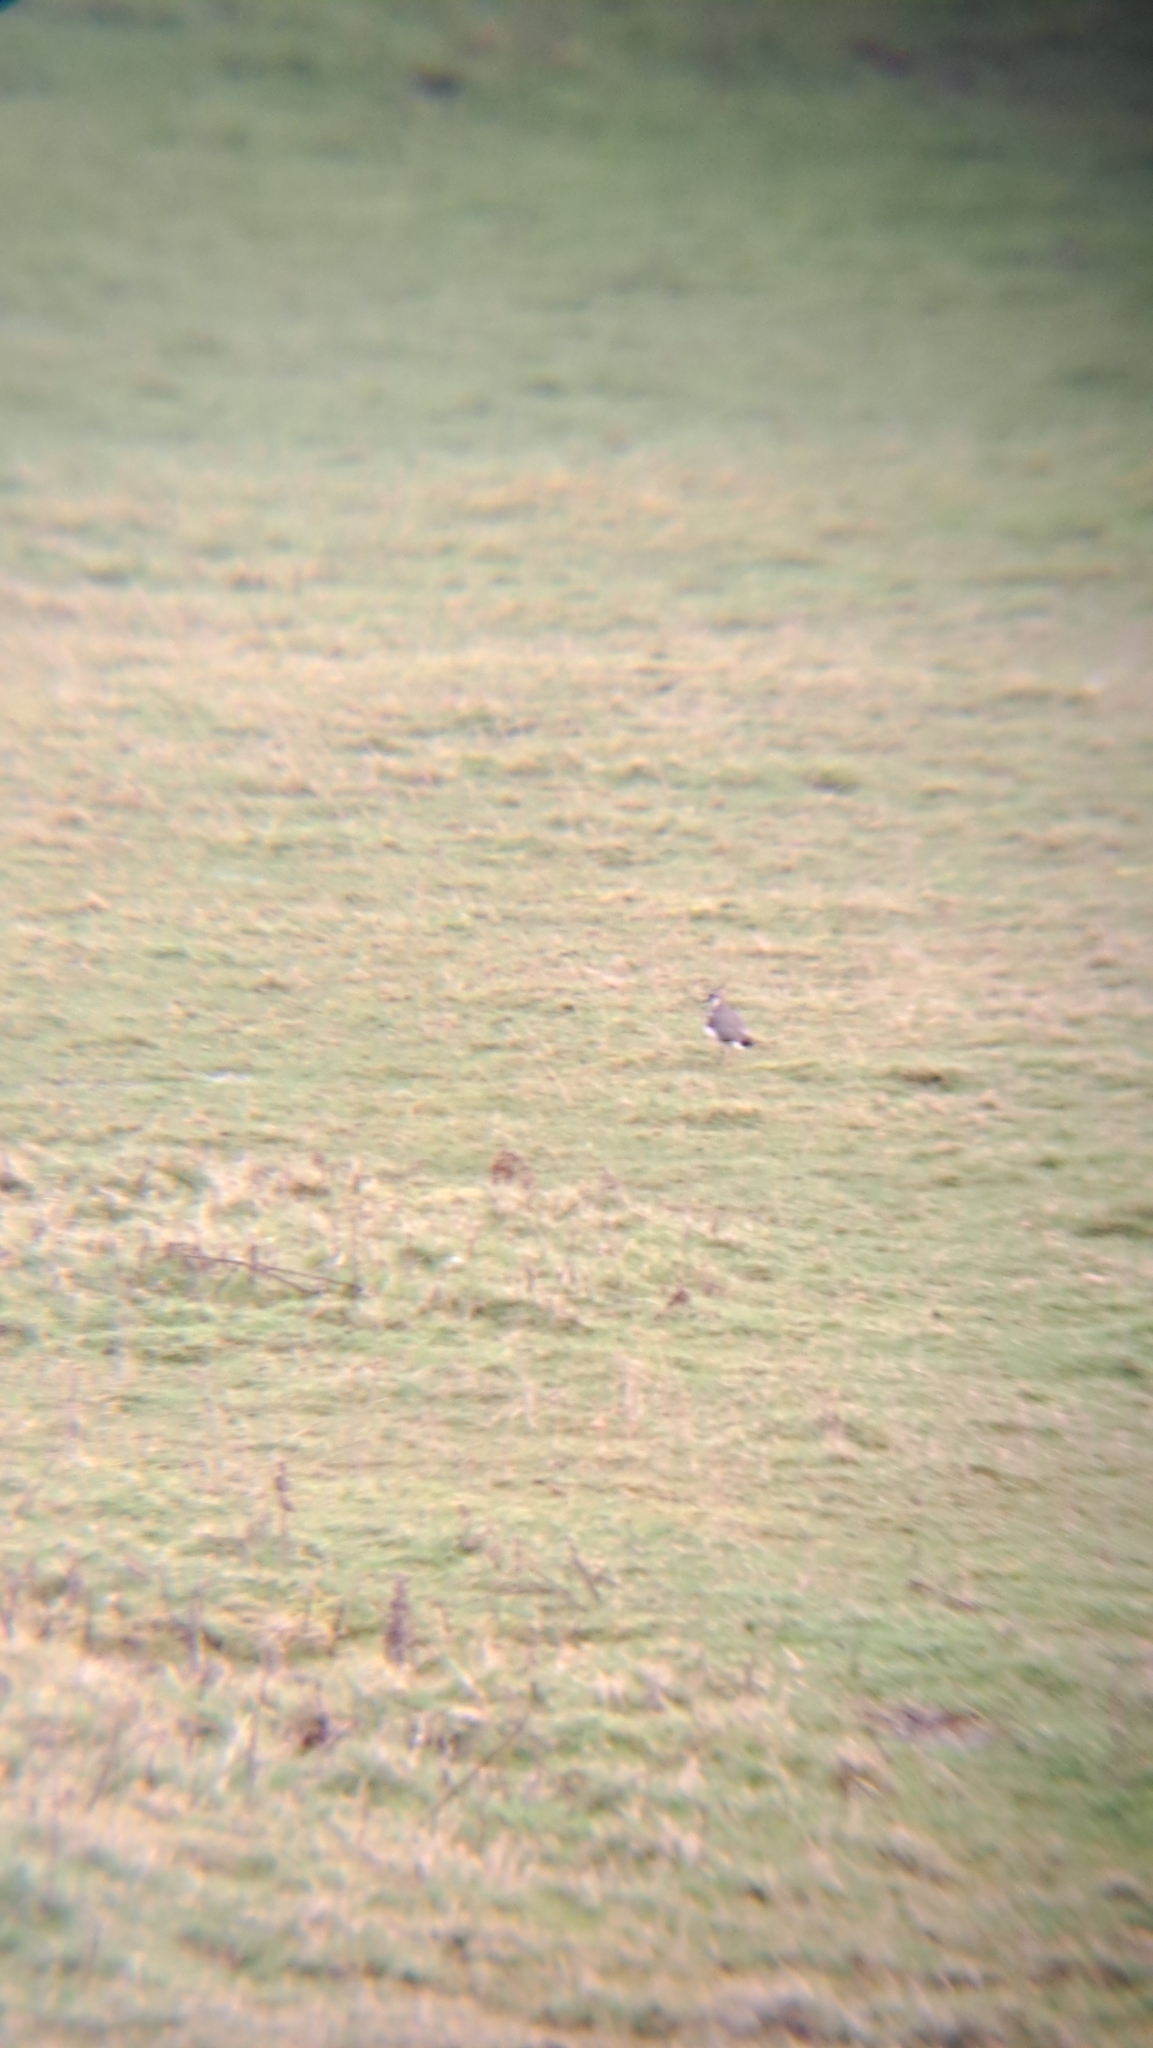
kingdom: Animalia
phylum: Chordata
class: Aves
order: Charadriiformes
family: Charadriidae
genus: Vanellus
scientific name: Vanellus vanellus
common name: Northern lapwing
